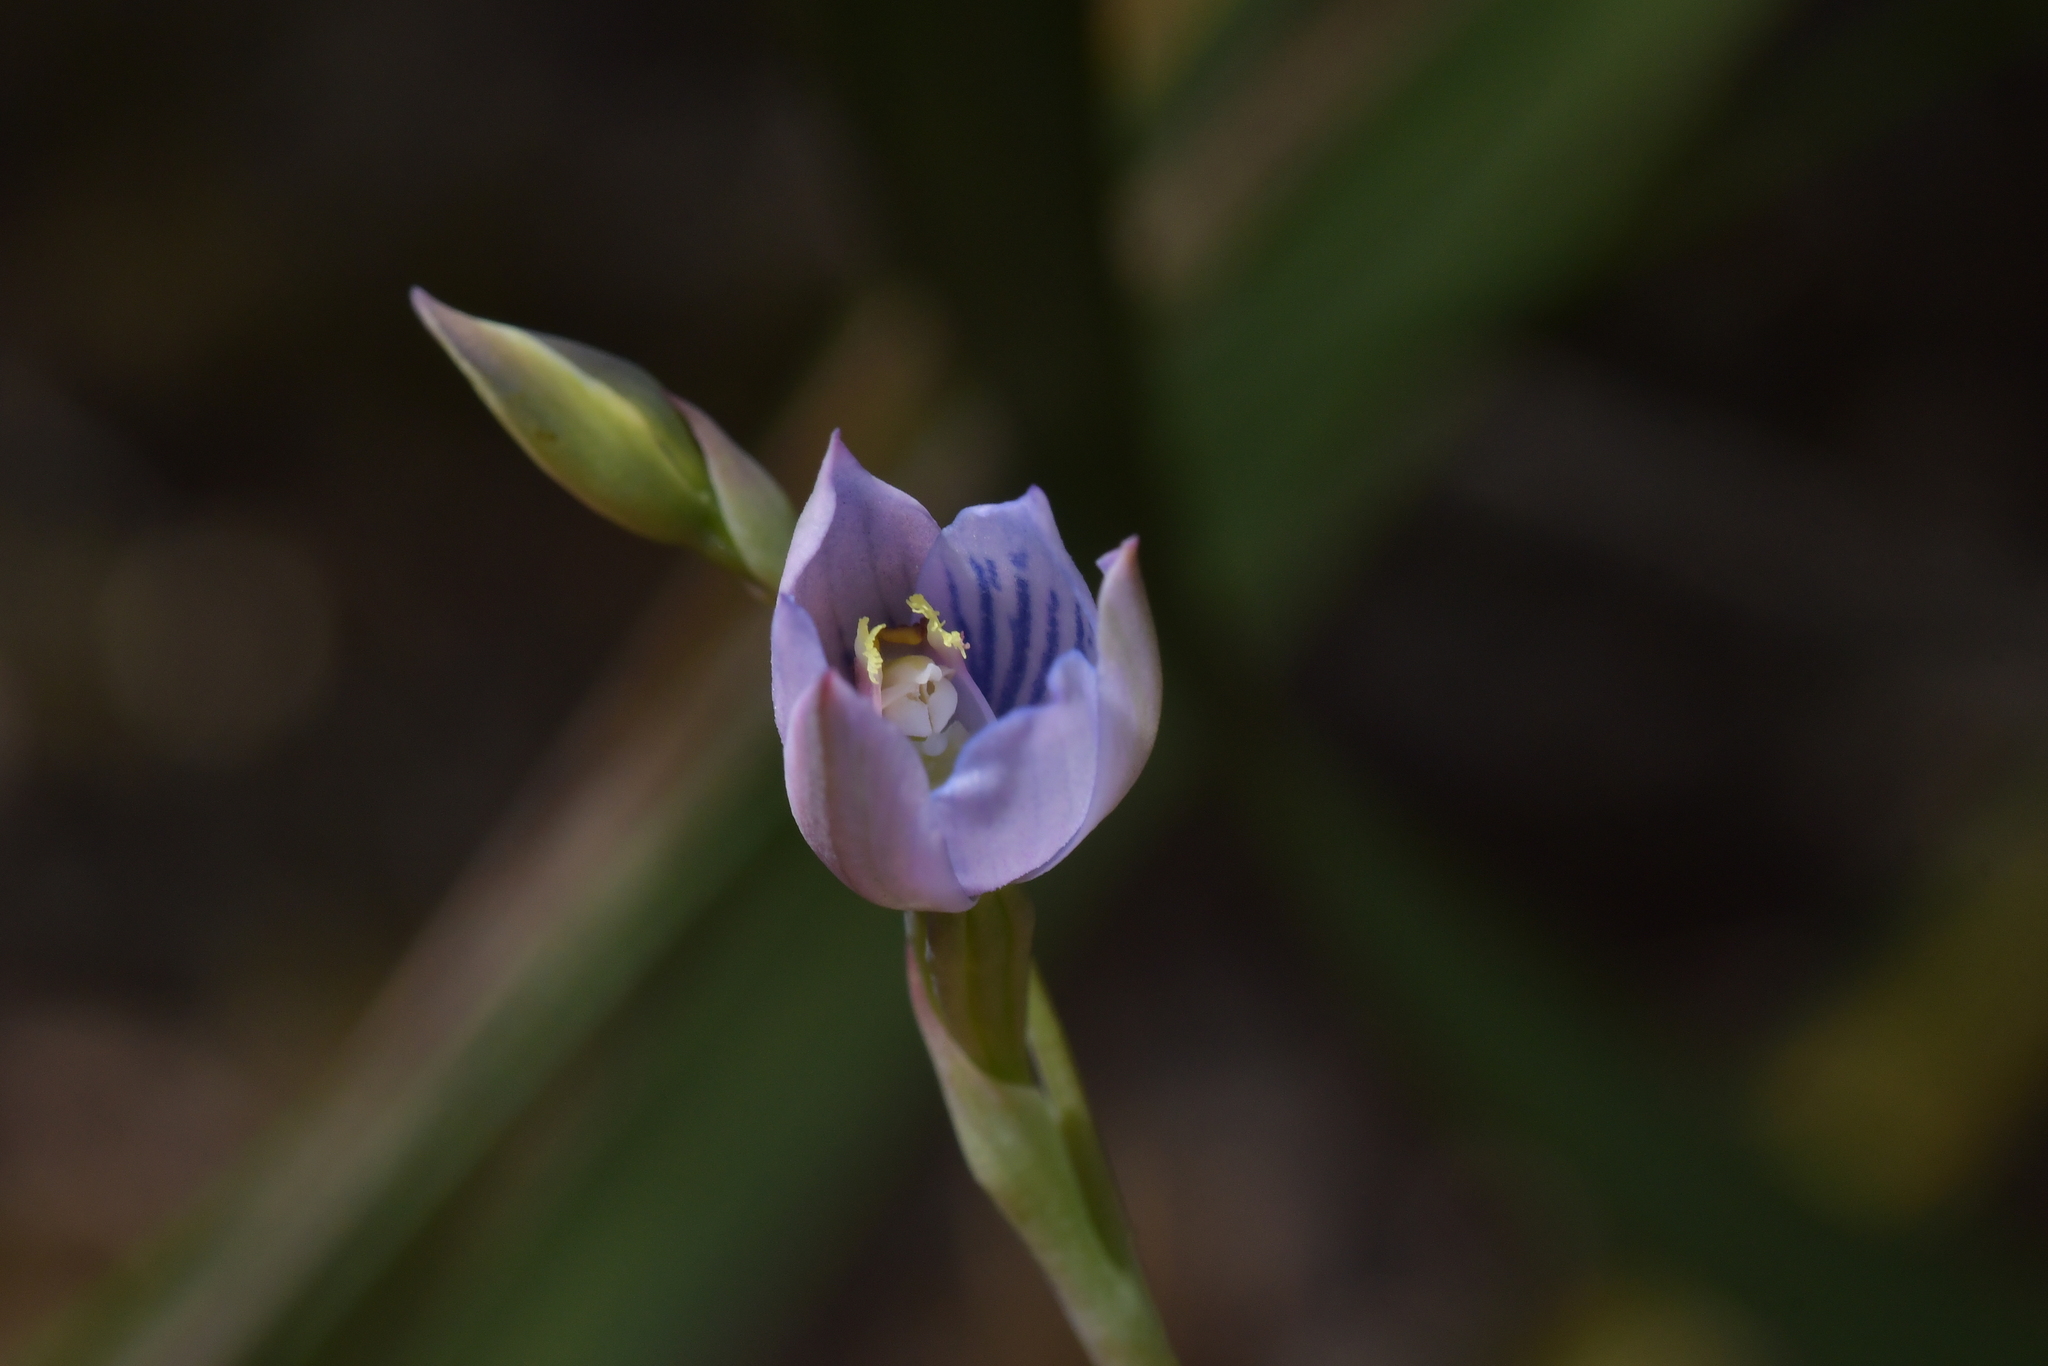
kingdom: Plantae
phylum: Tracheophyta
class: Liliopsida
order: Asparagales
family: Orchidaceae
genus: Thelymitra
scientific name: Thelymitra pulchella
